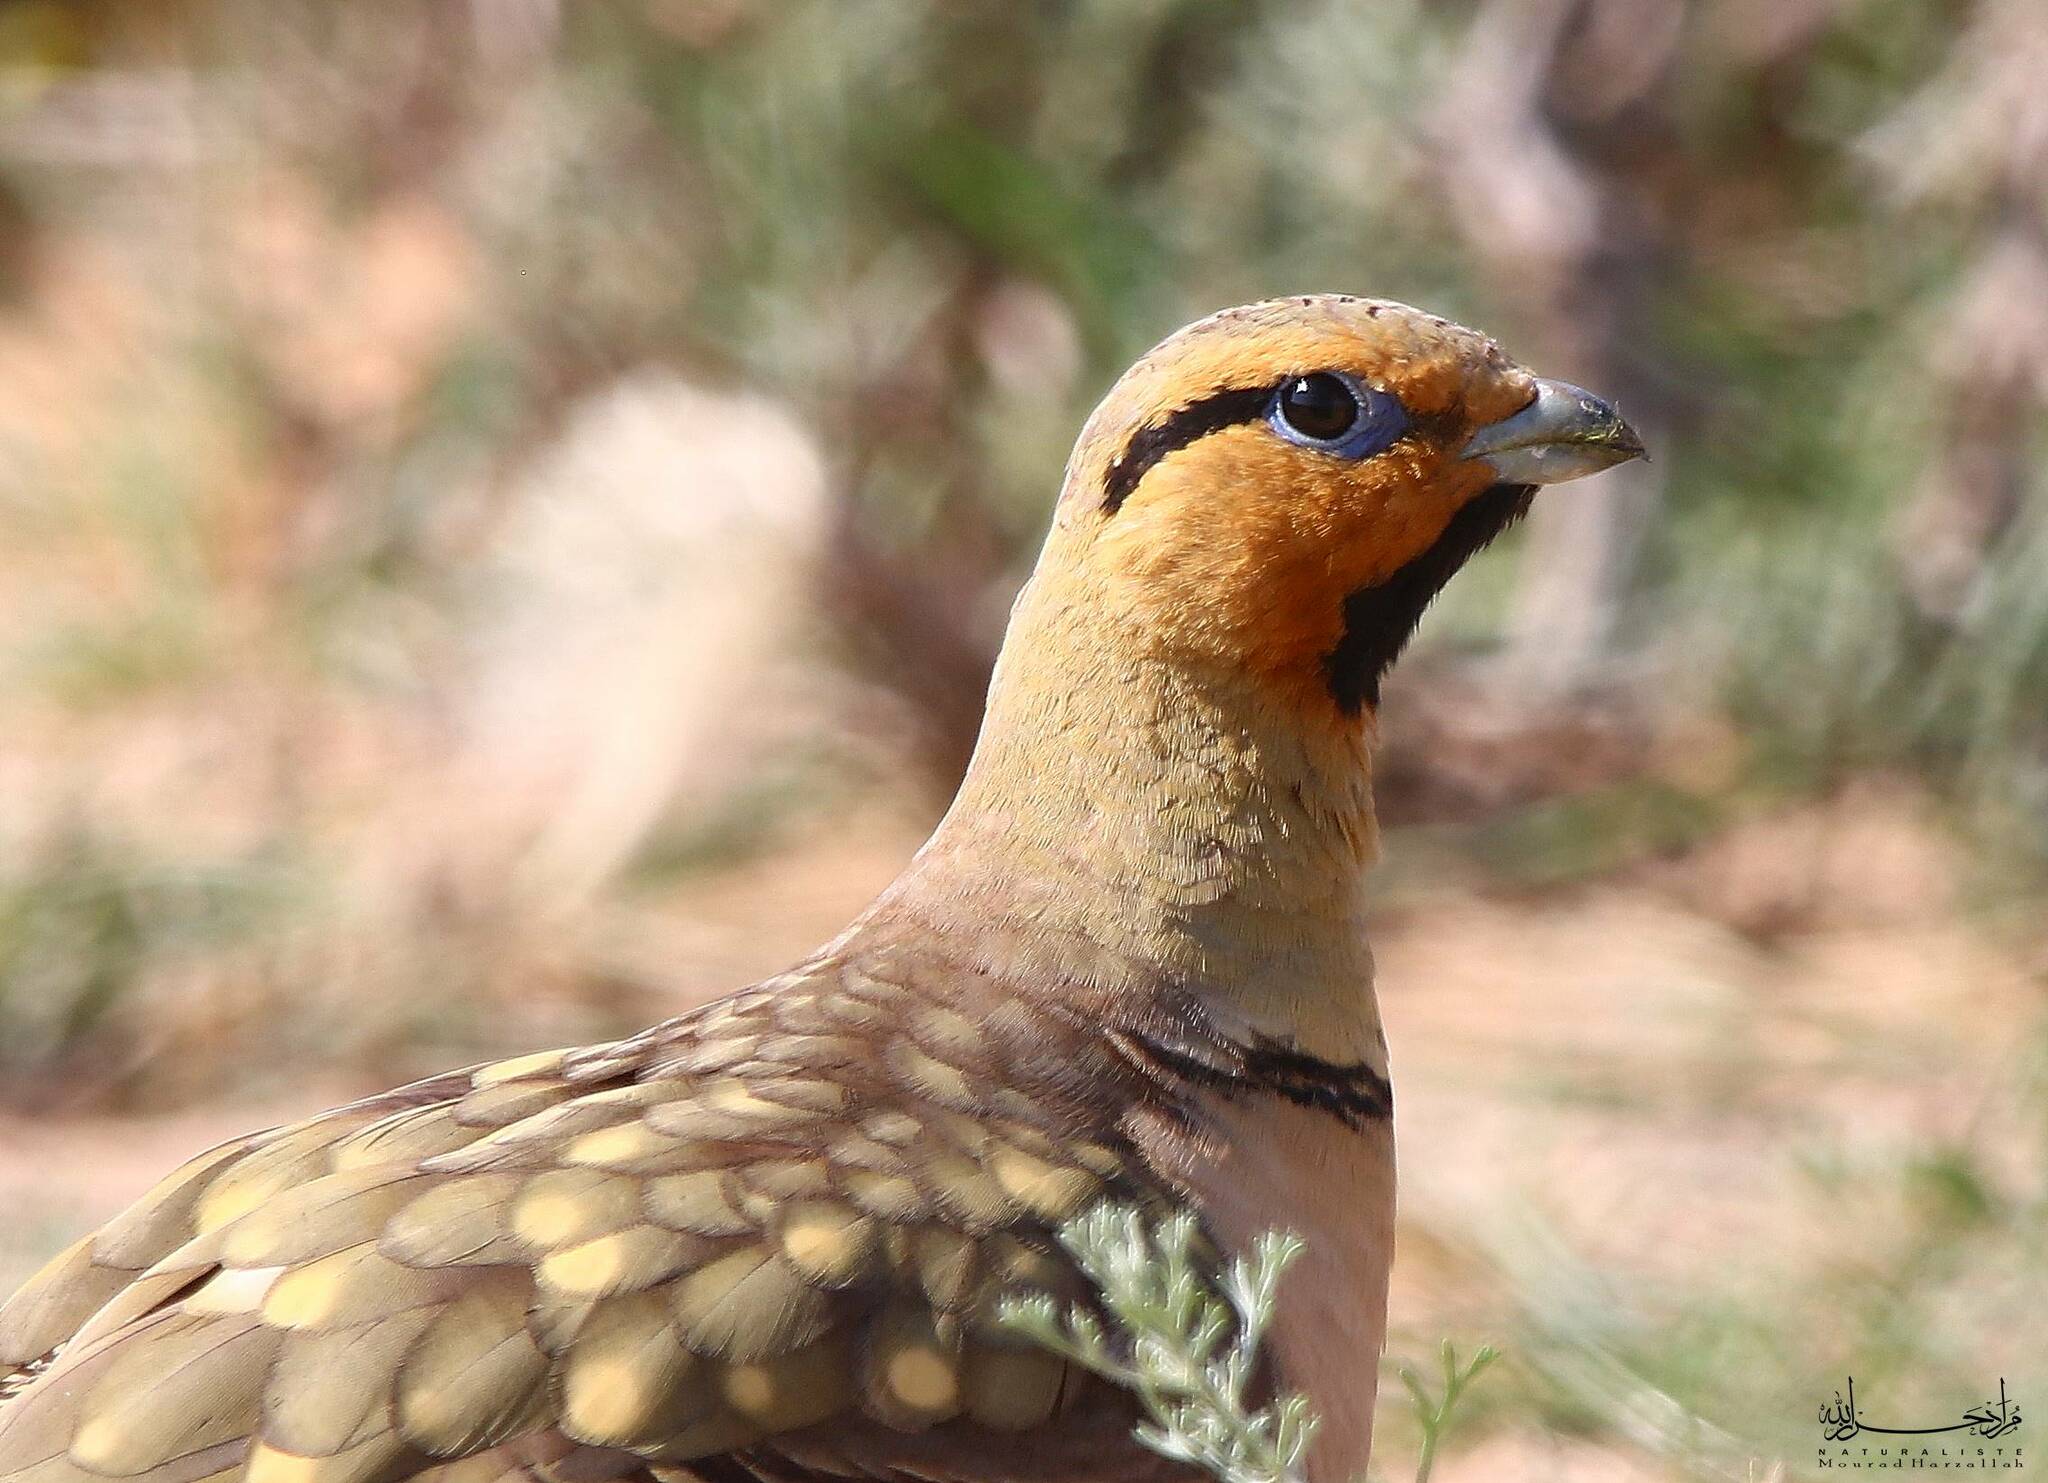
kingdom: Animalia
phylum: Chordata
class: Aves
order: Pteroclidiformes
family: Pteroclididae
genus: Pterocles
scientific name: Pterocles alchata
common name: Pin-tailed sandgrouse
